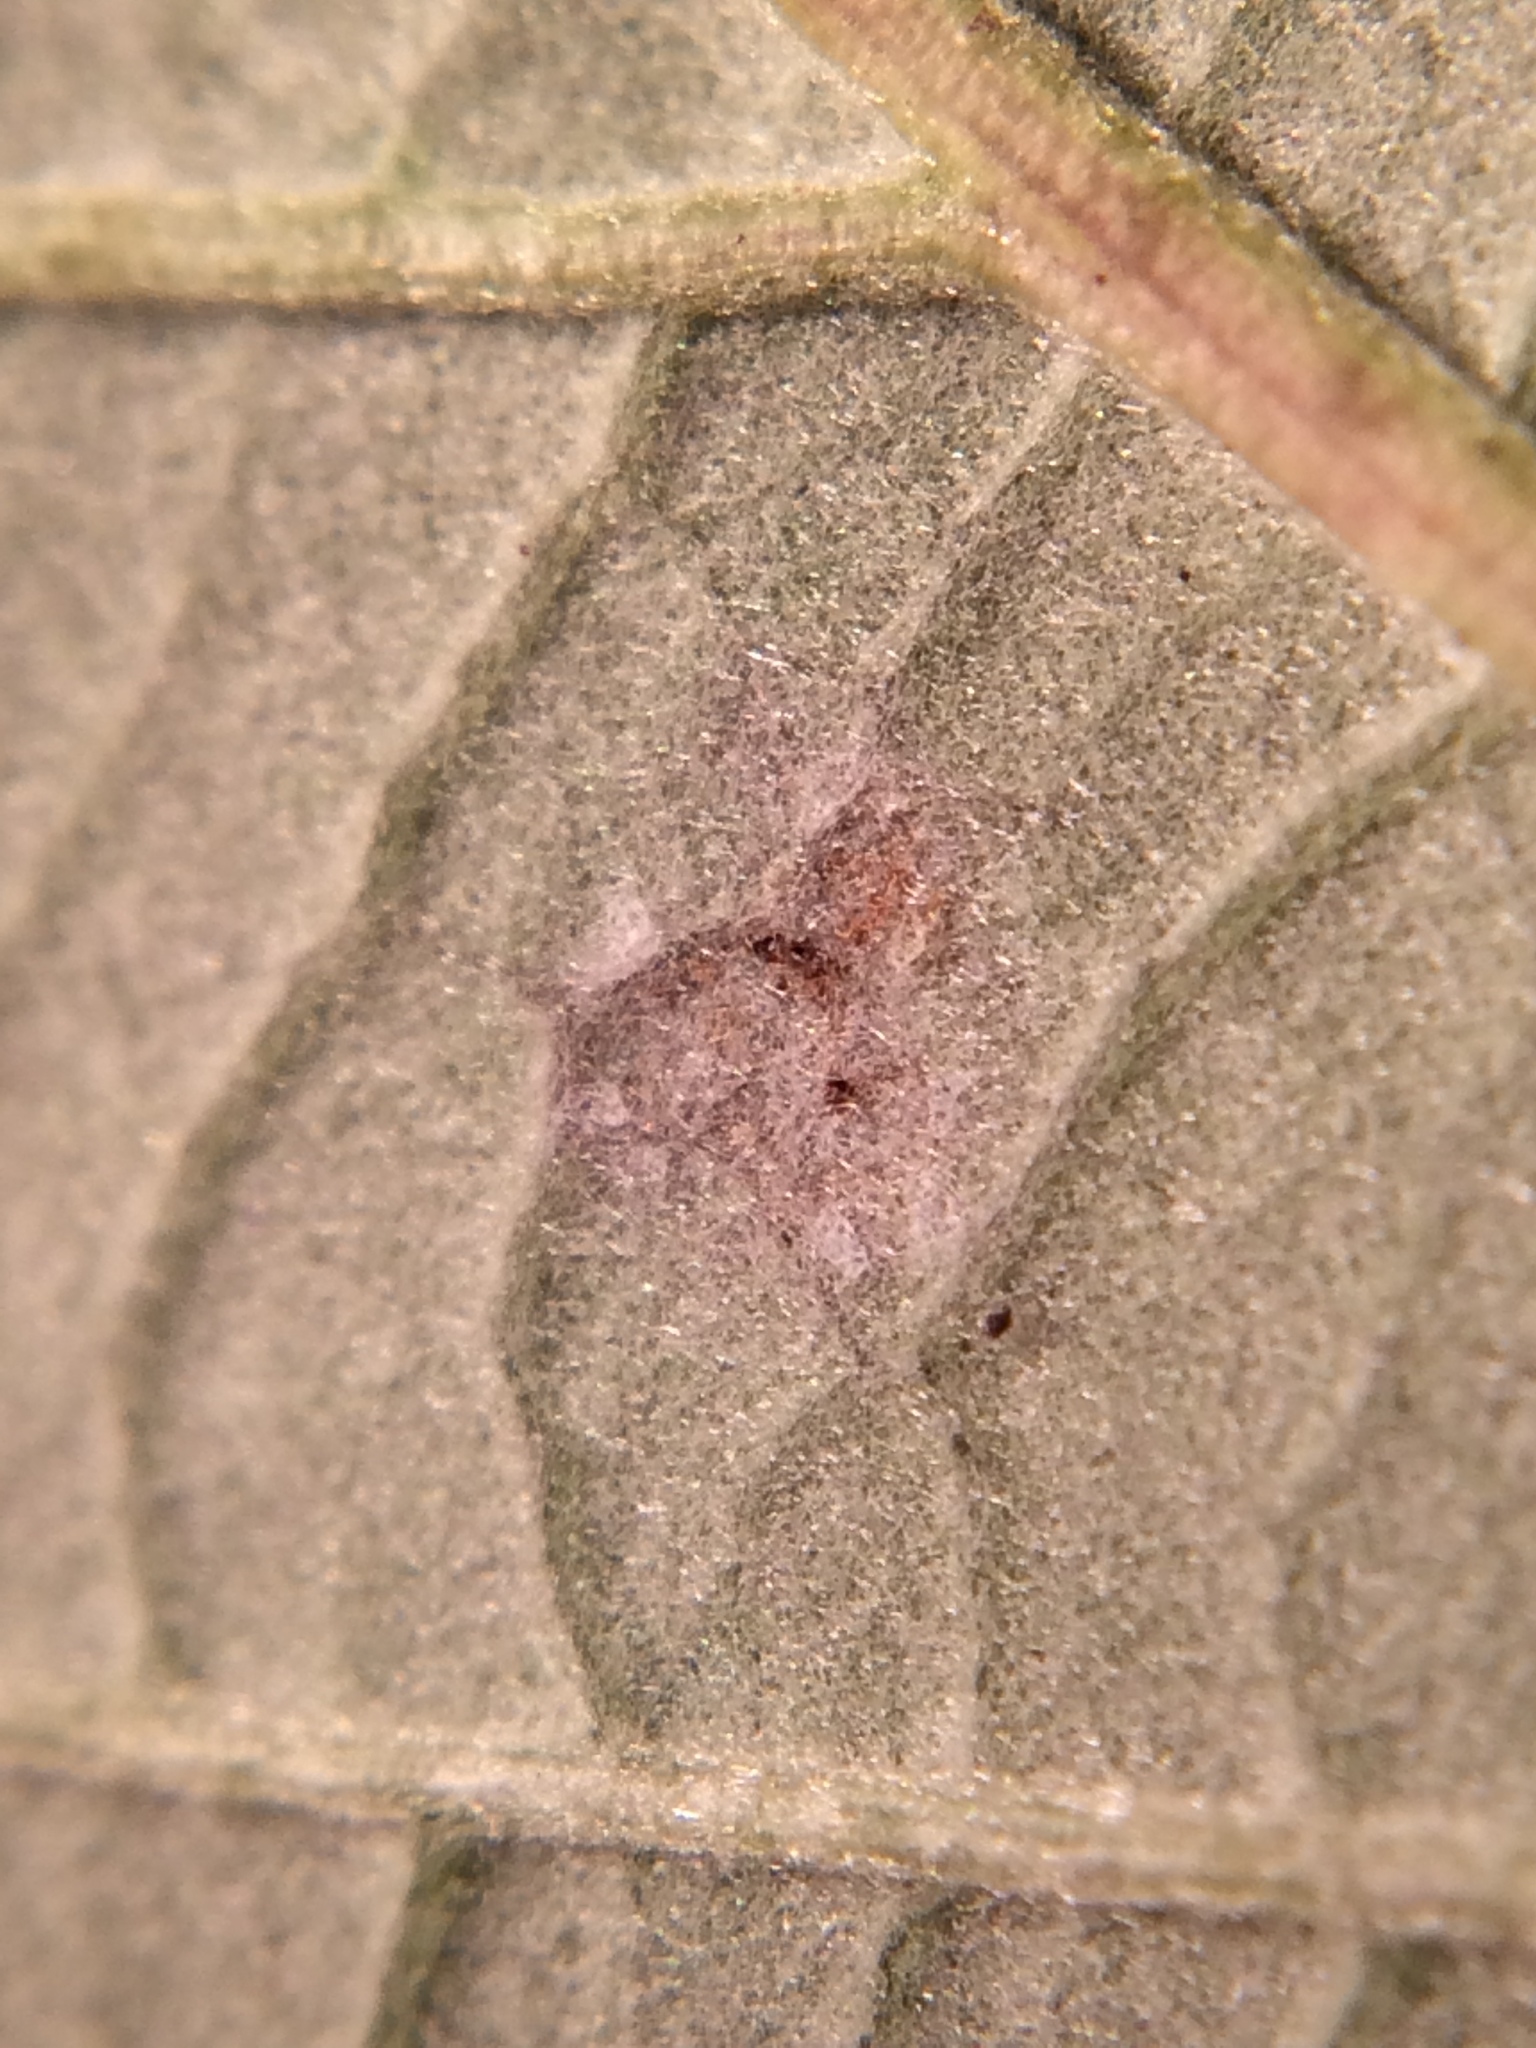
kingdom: Fungi
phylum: Basidiomycota
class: Pucciniomycetes
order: Pucciniales
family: Phragmidiaceae
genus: Phragmidium
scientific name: Phragmidium violaceum
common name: Violet bramble rust
